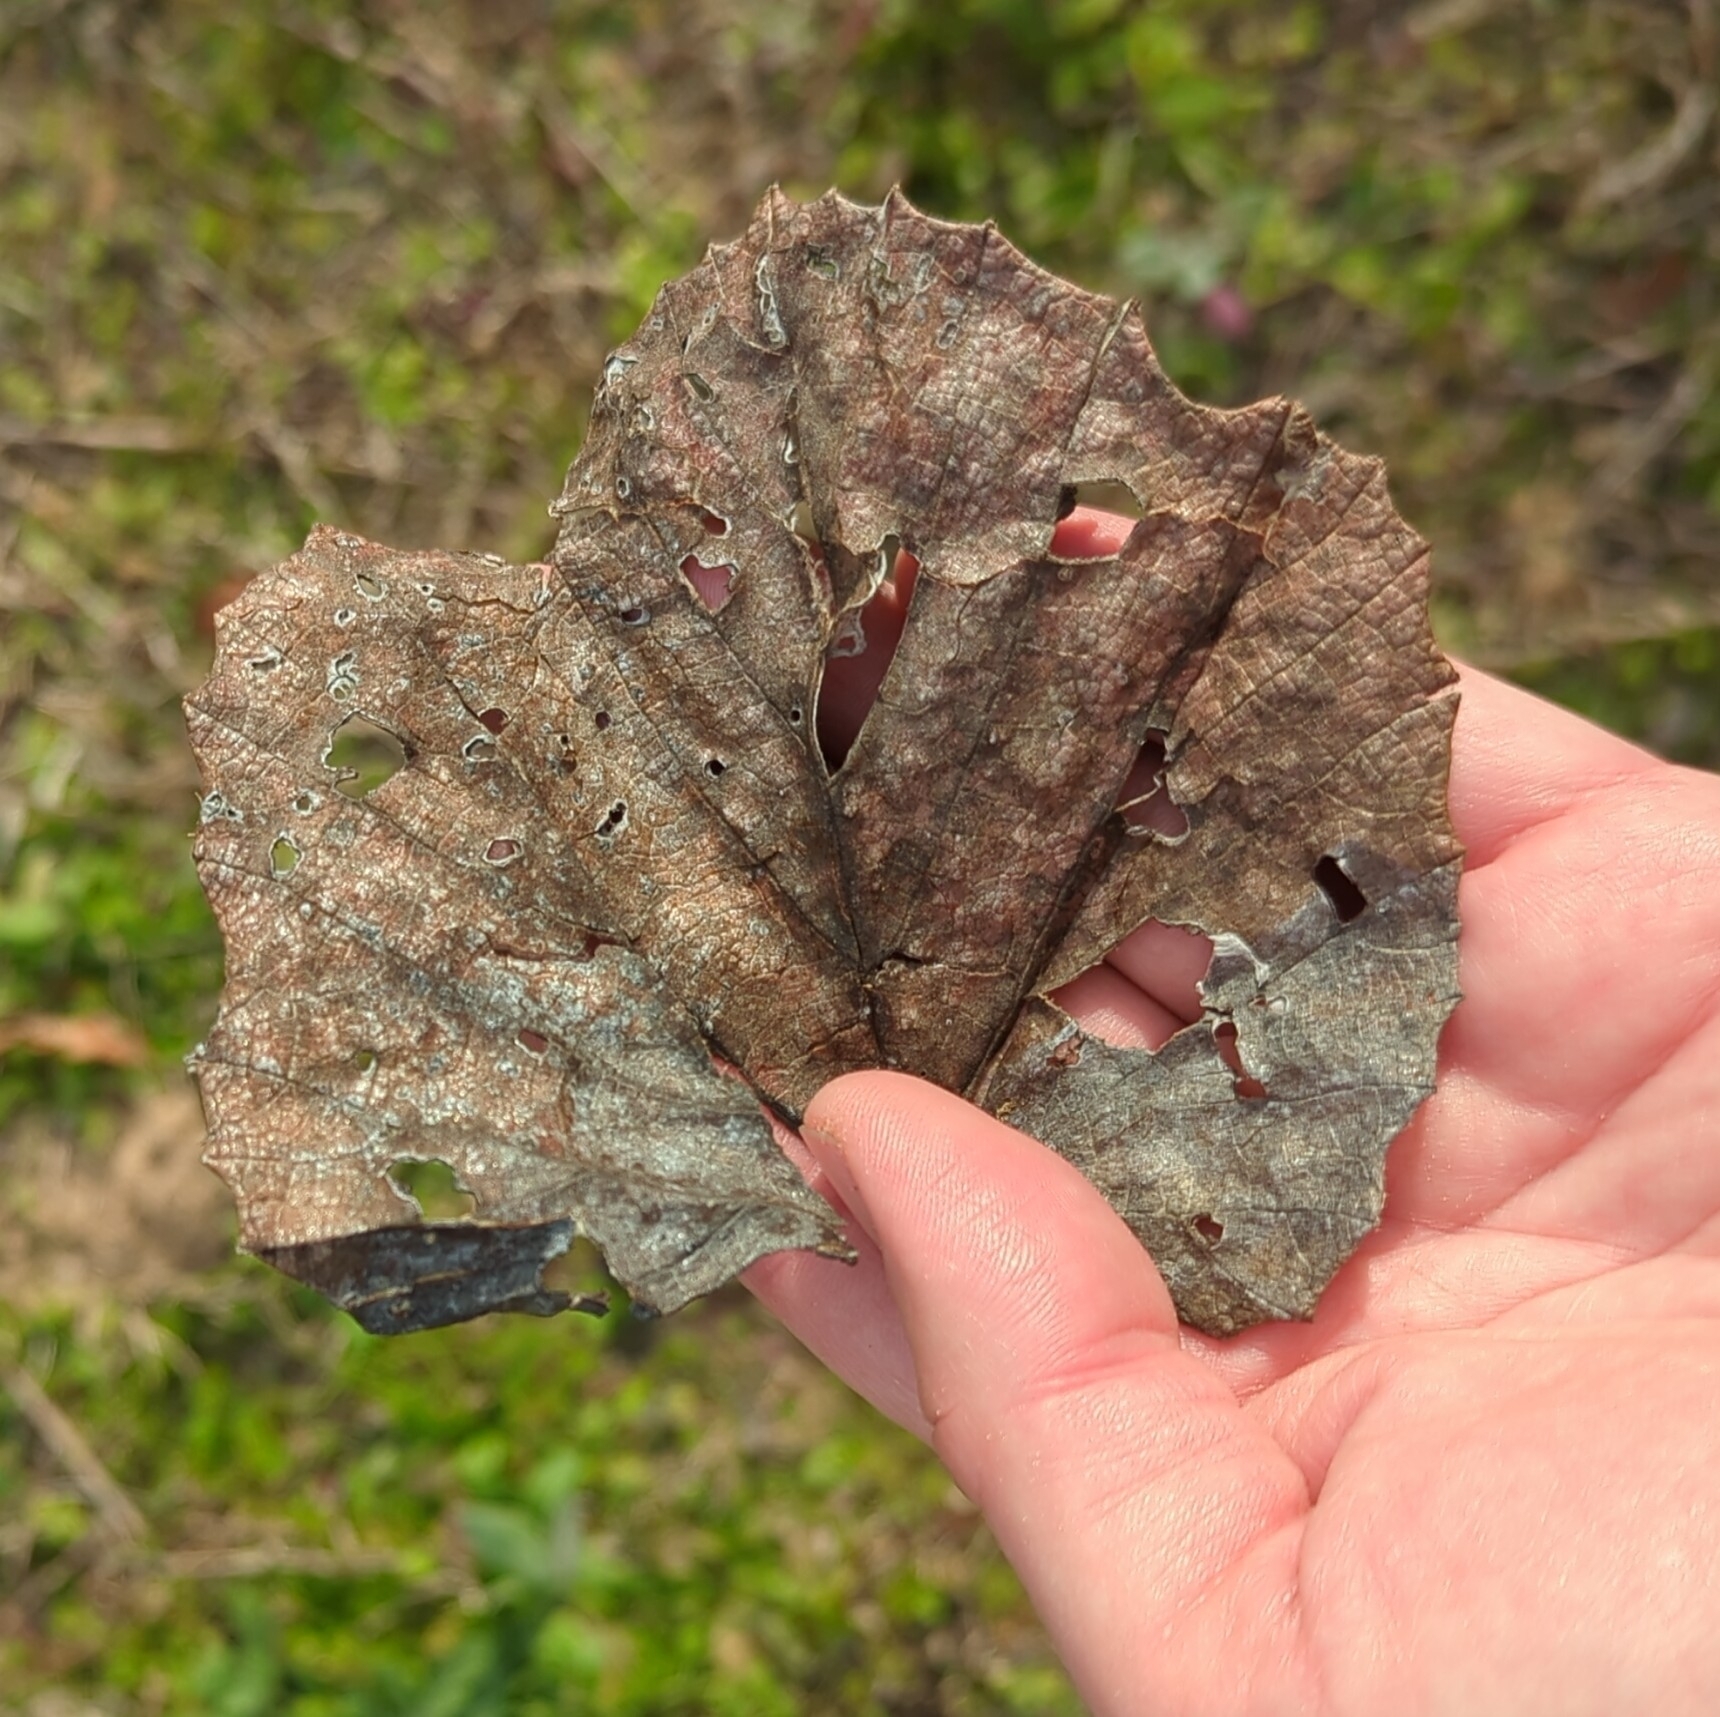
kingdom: Plantae
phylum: Tracheophyta
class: Magnoliopsida
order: Vitales
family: Vitaceae
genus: Vitis
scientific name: Vitis mustangensis
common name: Mustang grape
